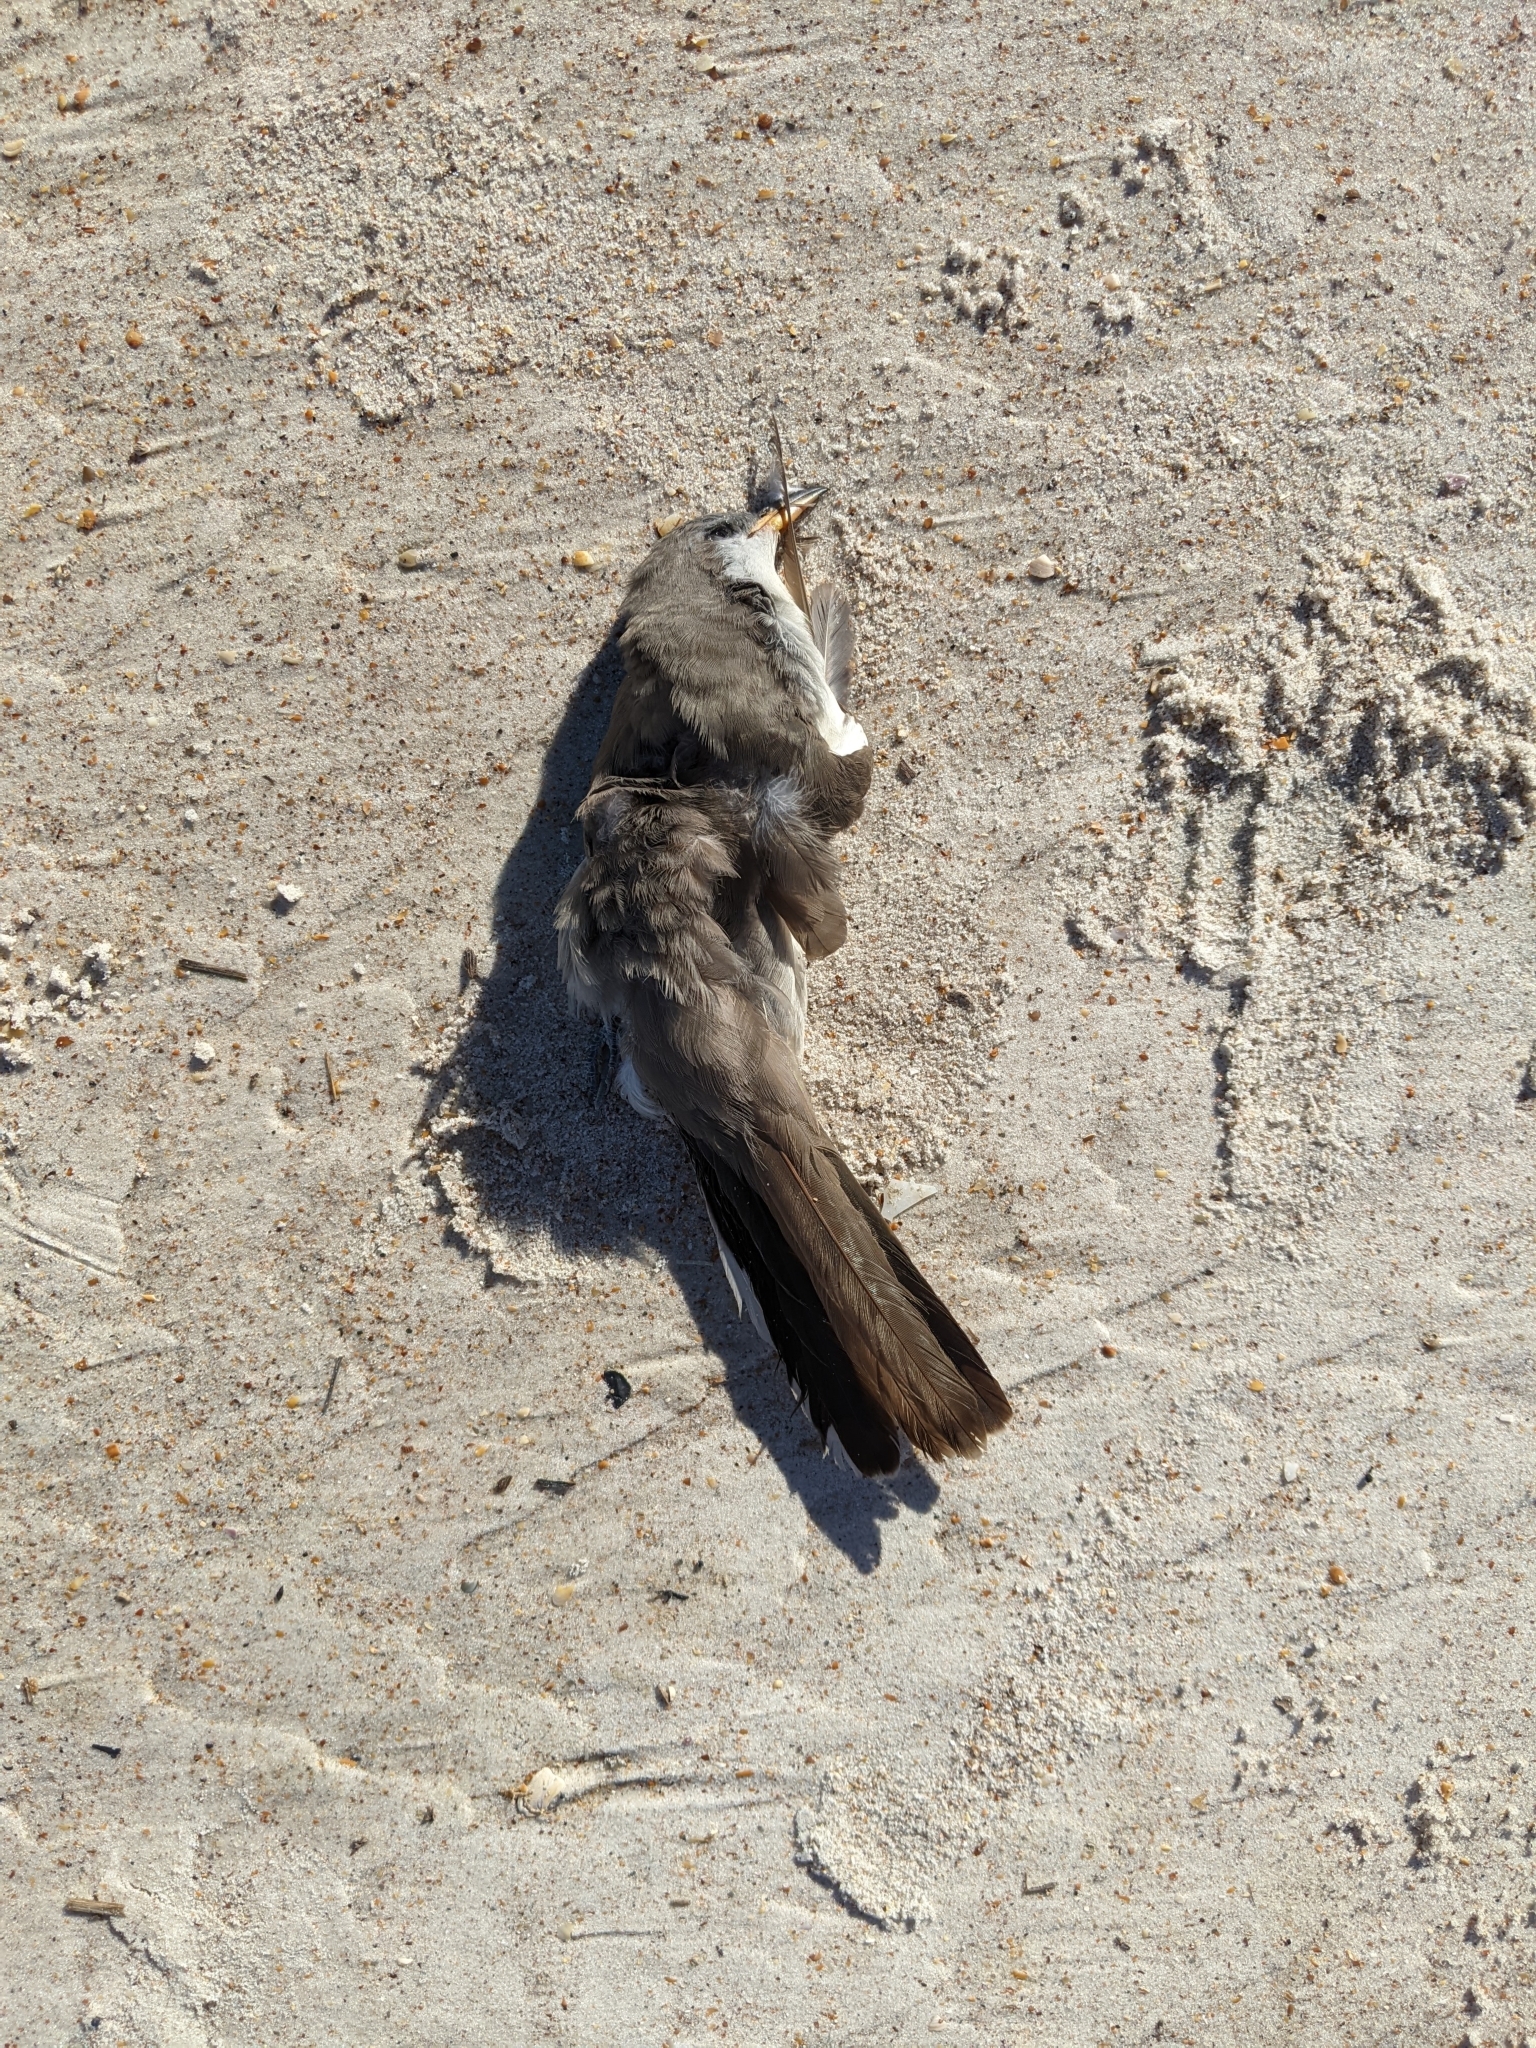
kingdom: Animalia
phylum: Chordata
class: Aves
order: Cuculiformes
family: Cuculidae
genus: Coccyzus
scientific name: Coccyzus americanus
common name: Yellow-billed cuckoo
